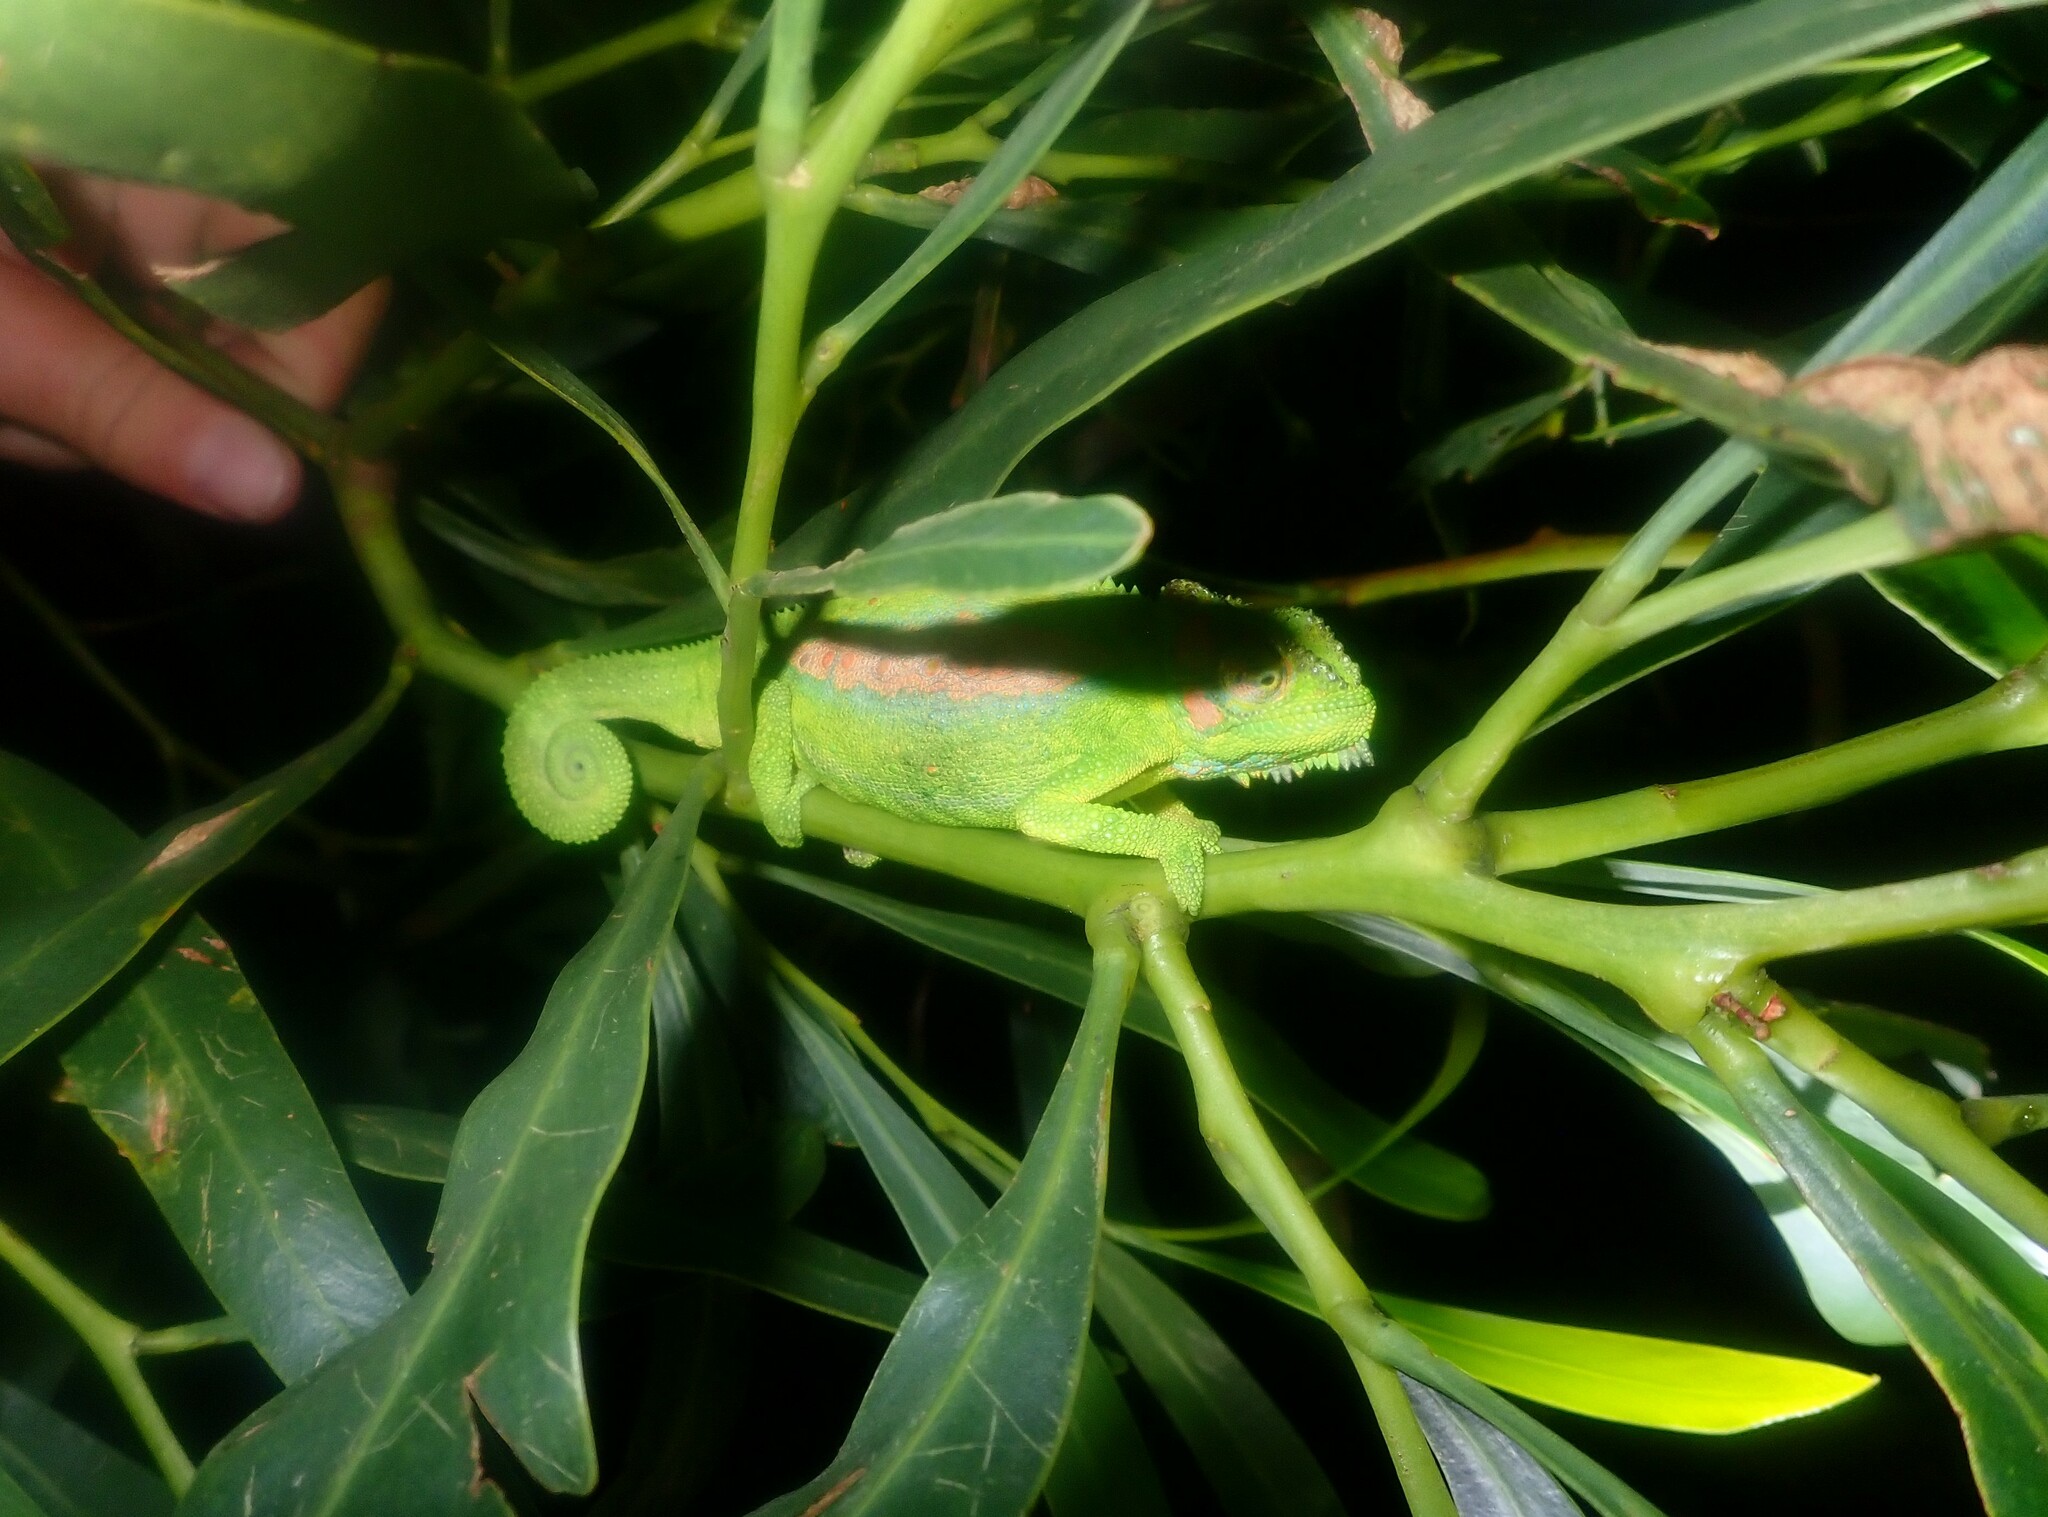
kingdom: Animalia
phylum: Chordata
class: Squamata
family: Chamaeleonidae
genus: Bradypodion
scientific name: Bradypodion pumilum
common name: Cape dwarf chameleon
